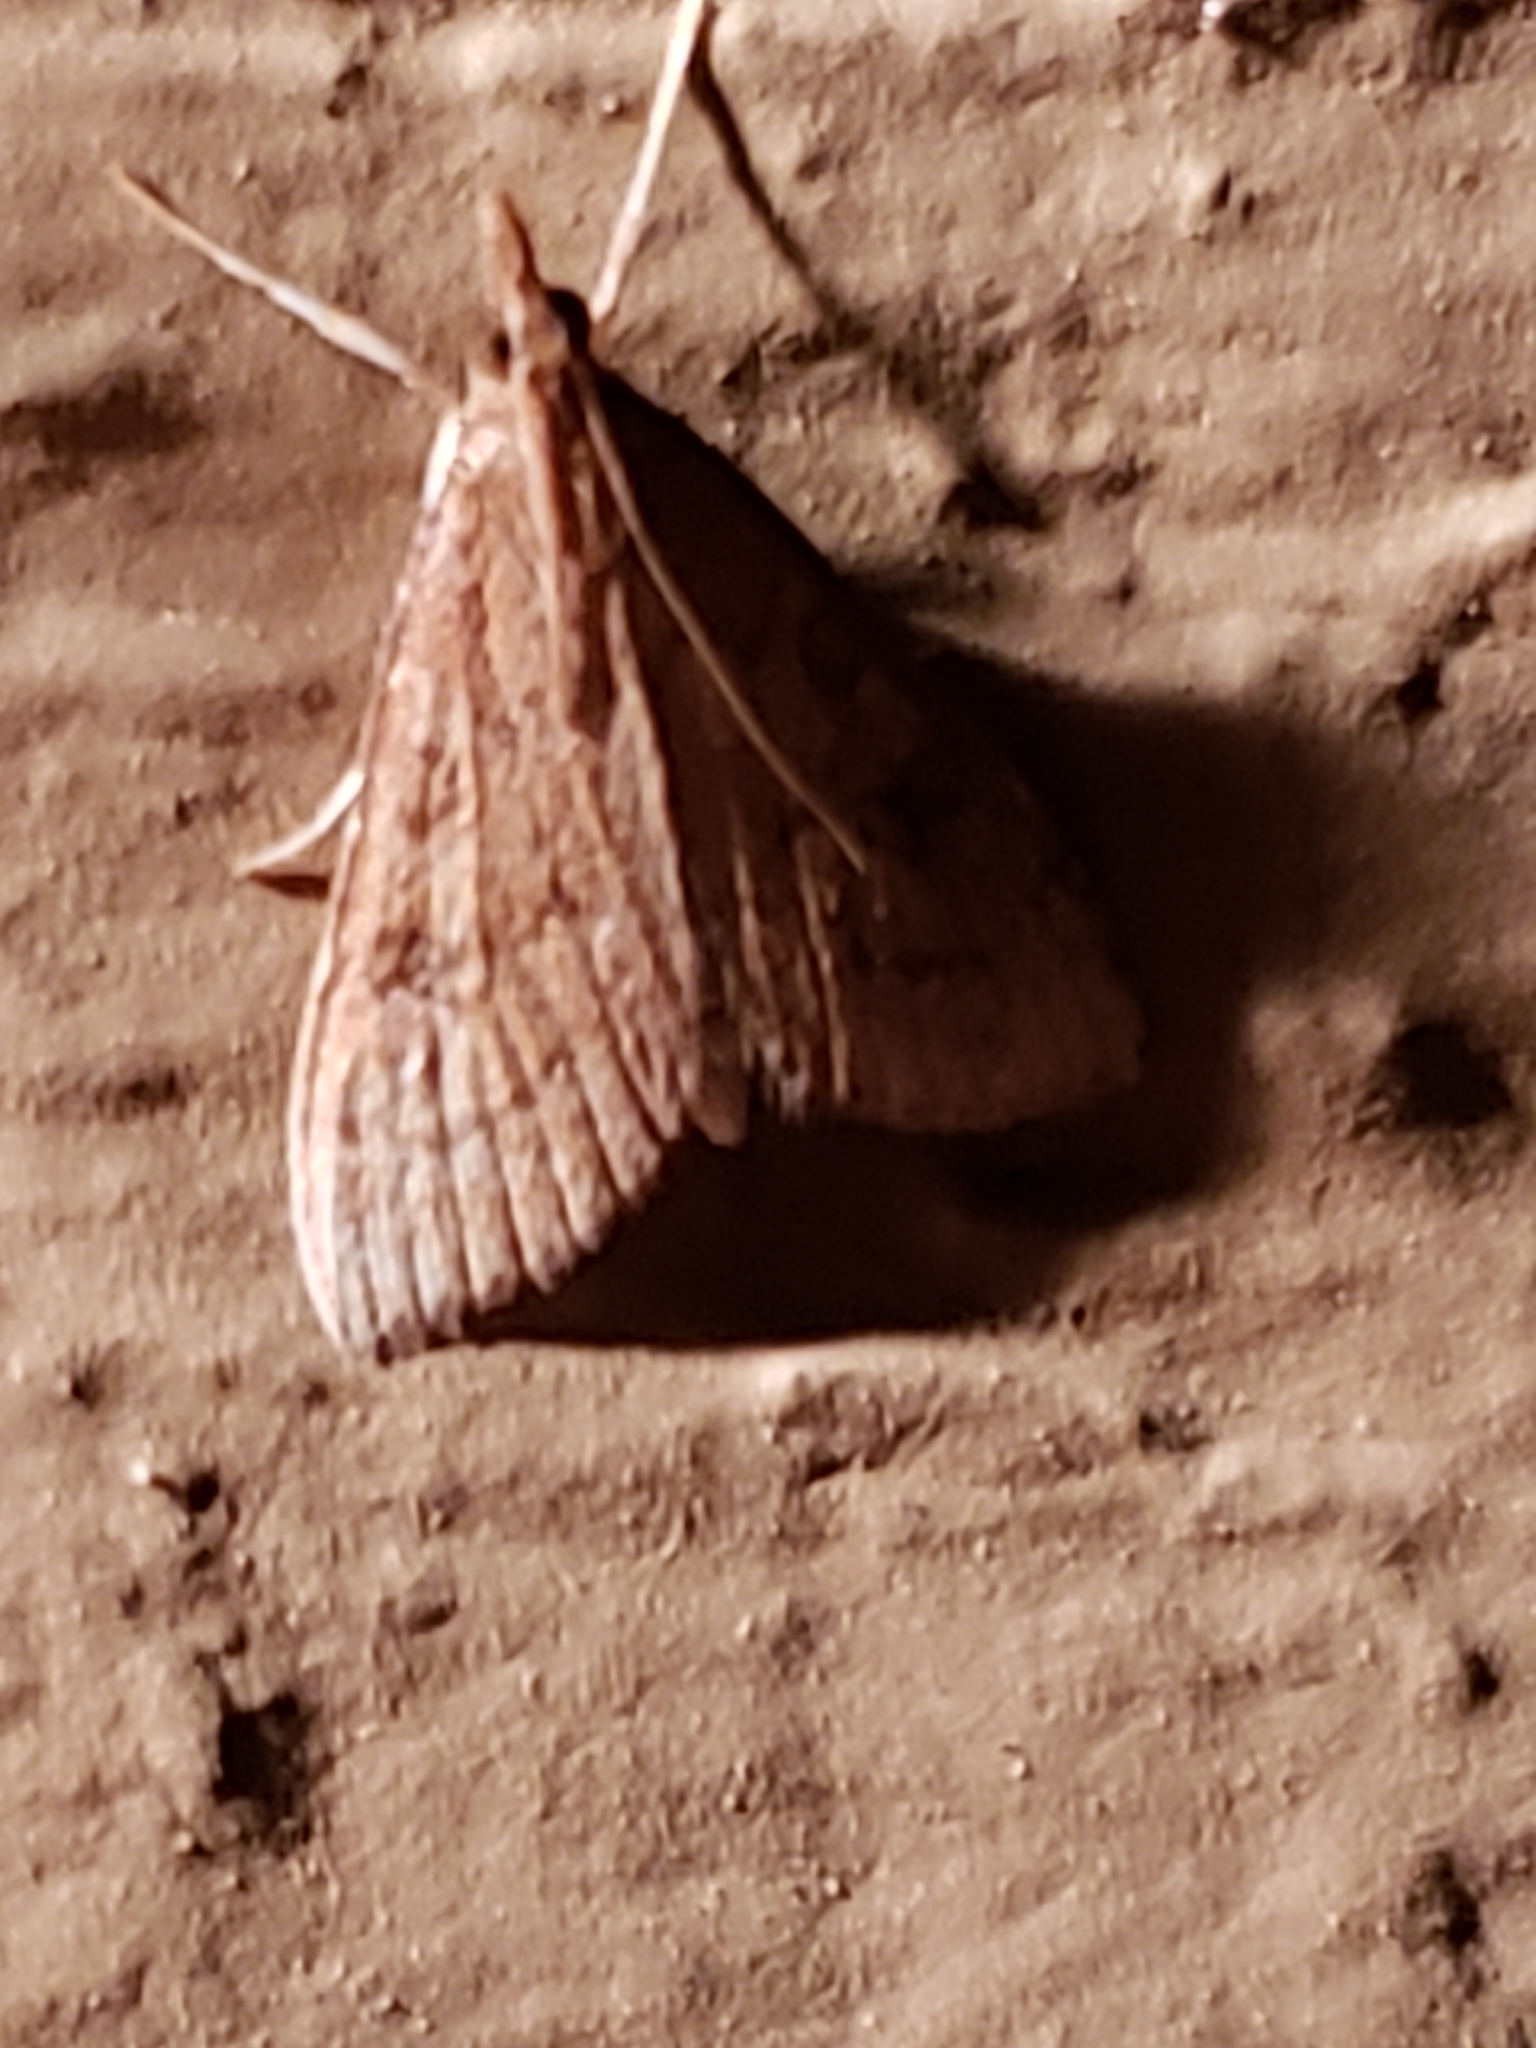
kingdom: Animalia
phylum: Arthropoda
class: Insecta
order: Lepidoptera
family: Crambidae
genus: Udea
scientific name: Udea rubigalis
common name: Celery leaftier moth
